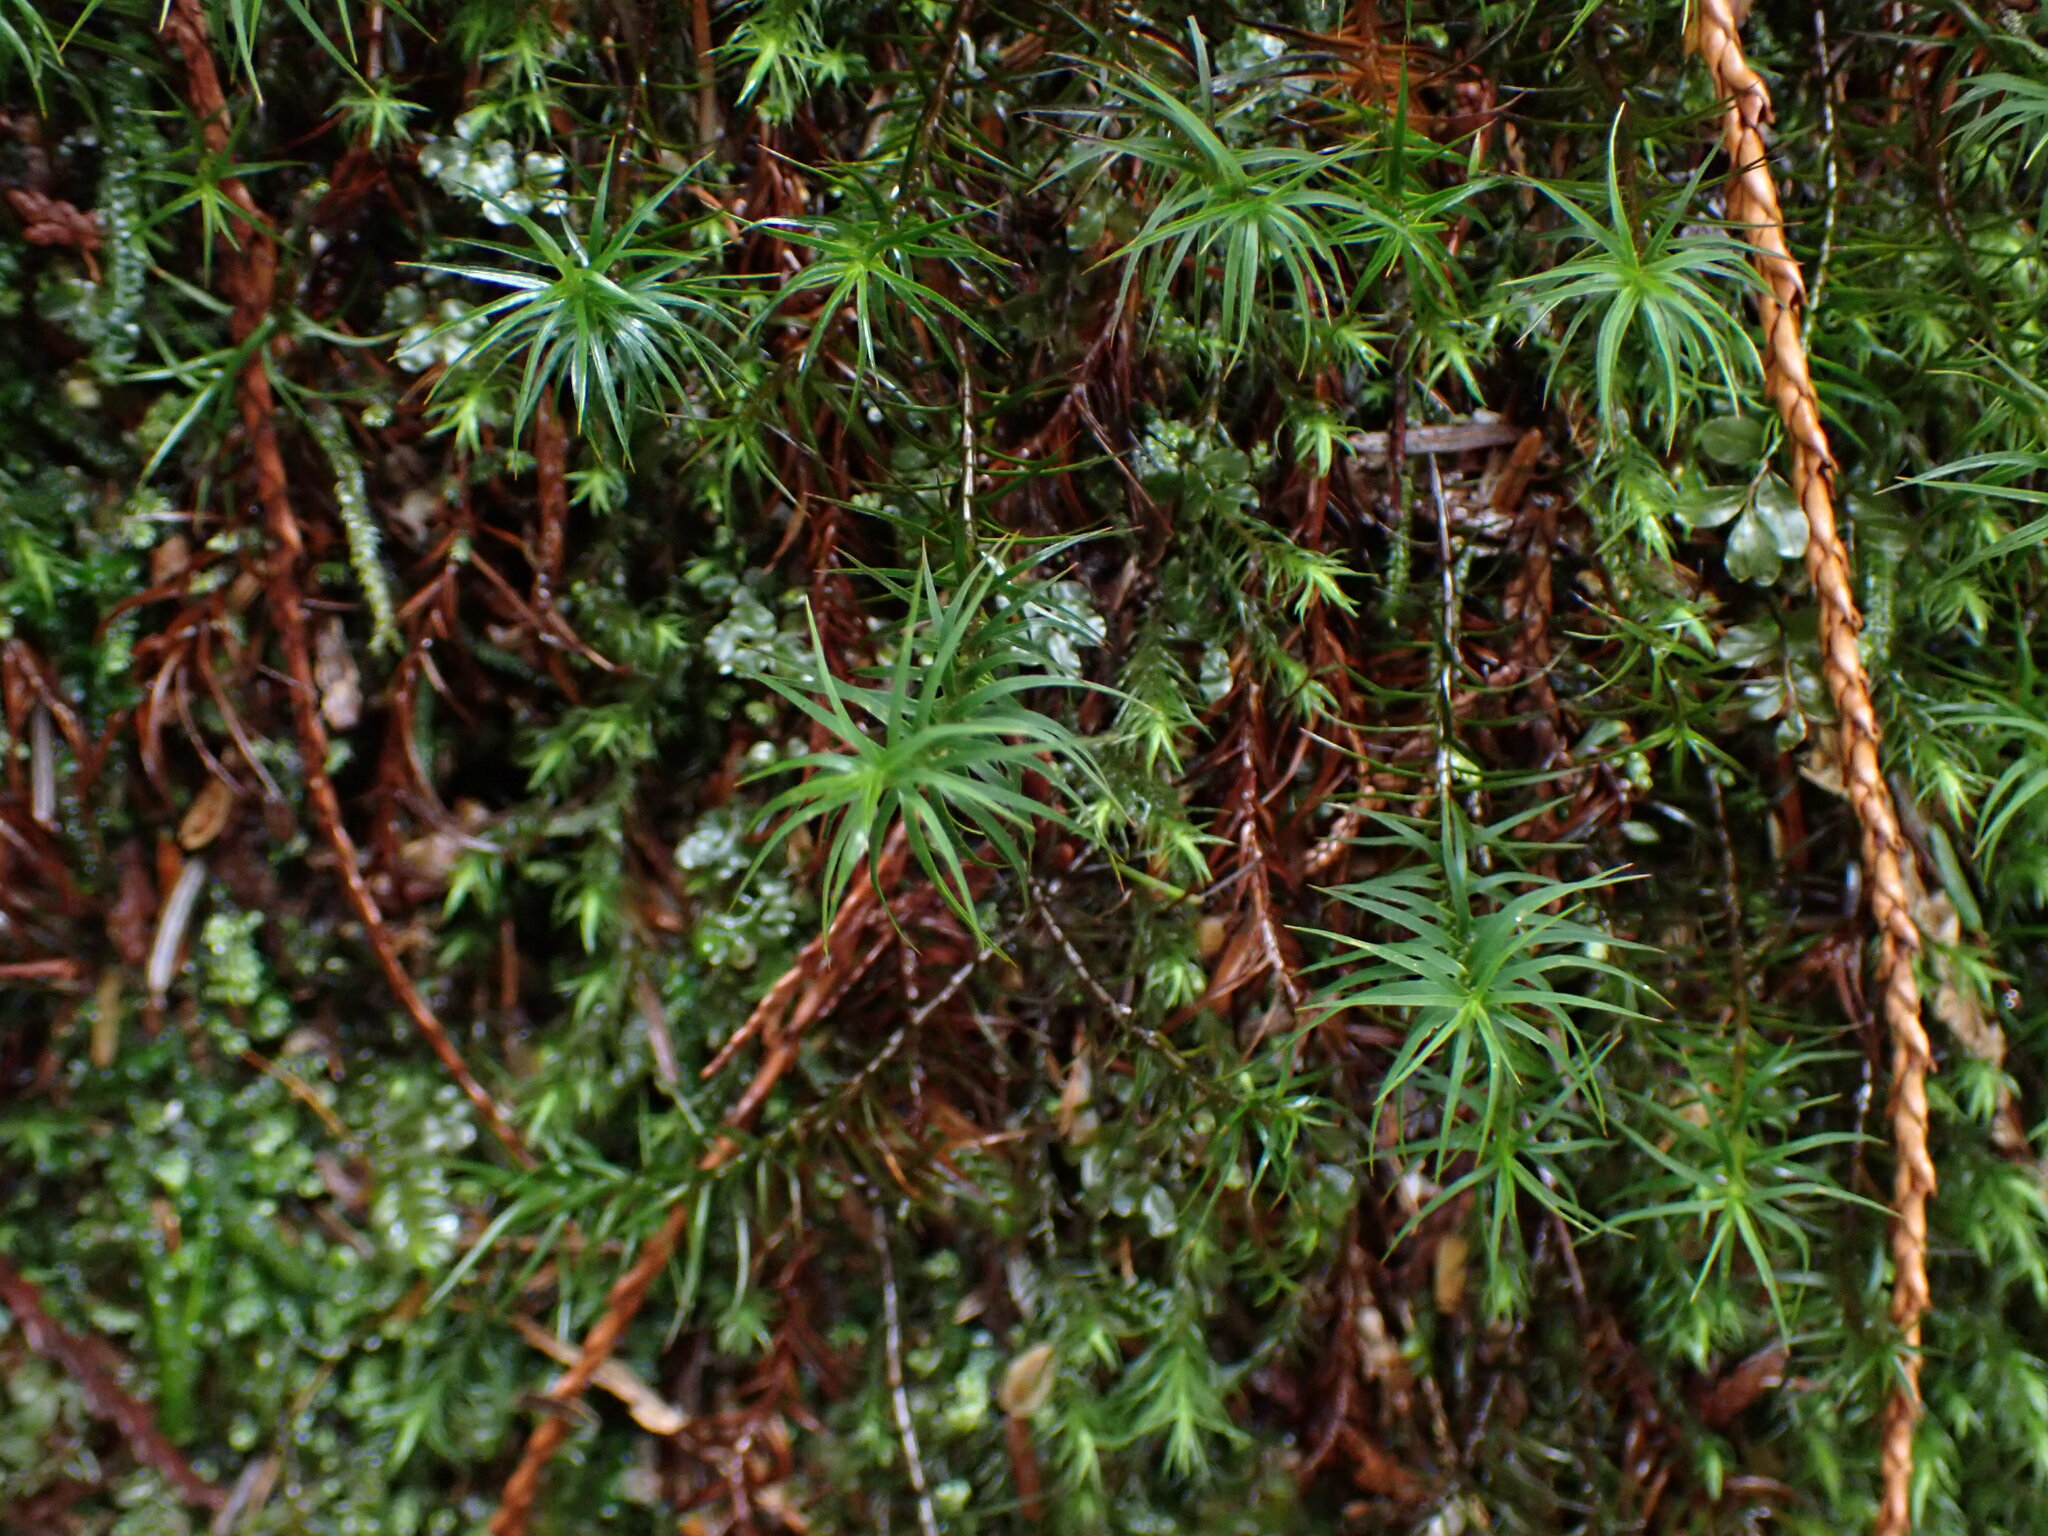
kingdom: Plantae
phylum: Bryophyta
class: Polytrichopsida
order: Polytrichales
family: Polytrichaceae
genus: Polytrichastrum
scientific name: Polytrichastrum alpinum
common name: Alpine haircap
